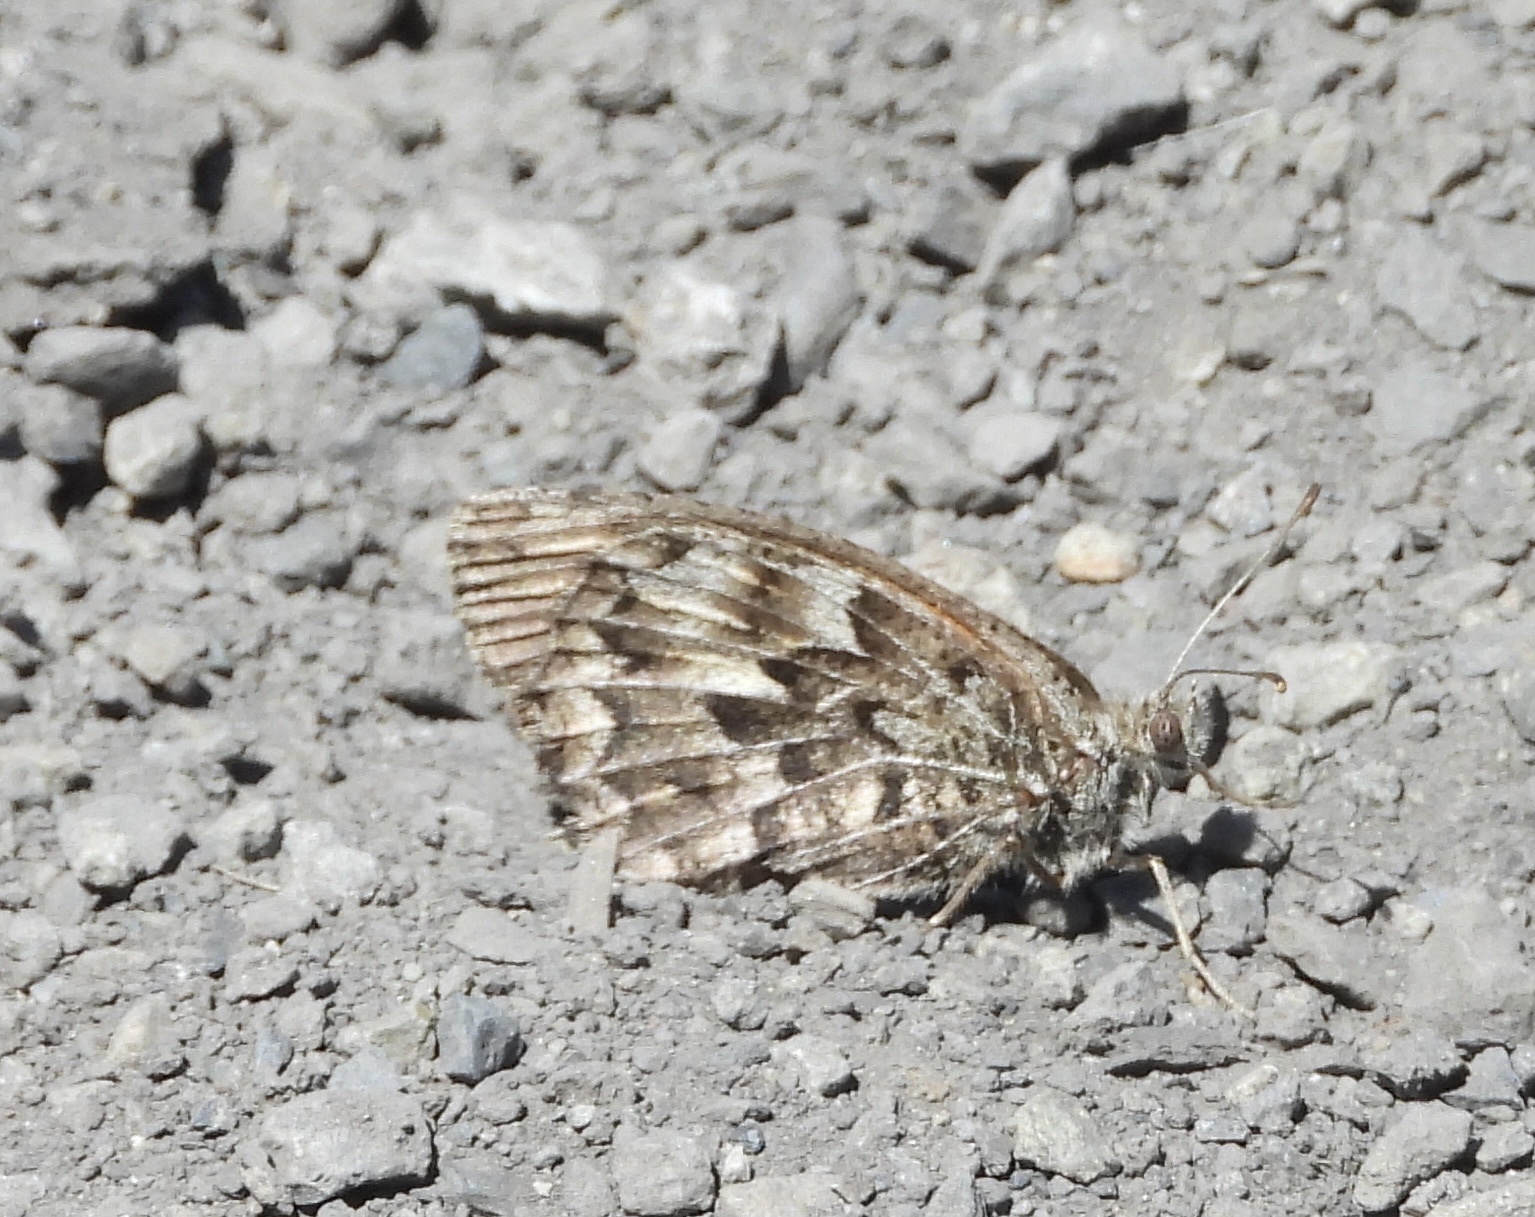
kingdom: Animalia
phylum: Arthropoda
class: Insecta
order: Lepidoptera
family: Nymphalidae
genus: Argyrophorus
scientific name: Argyrophorus
